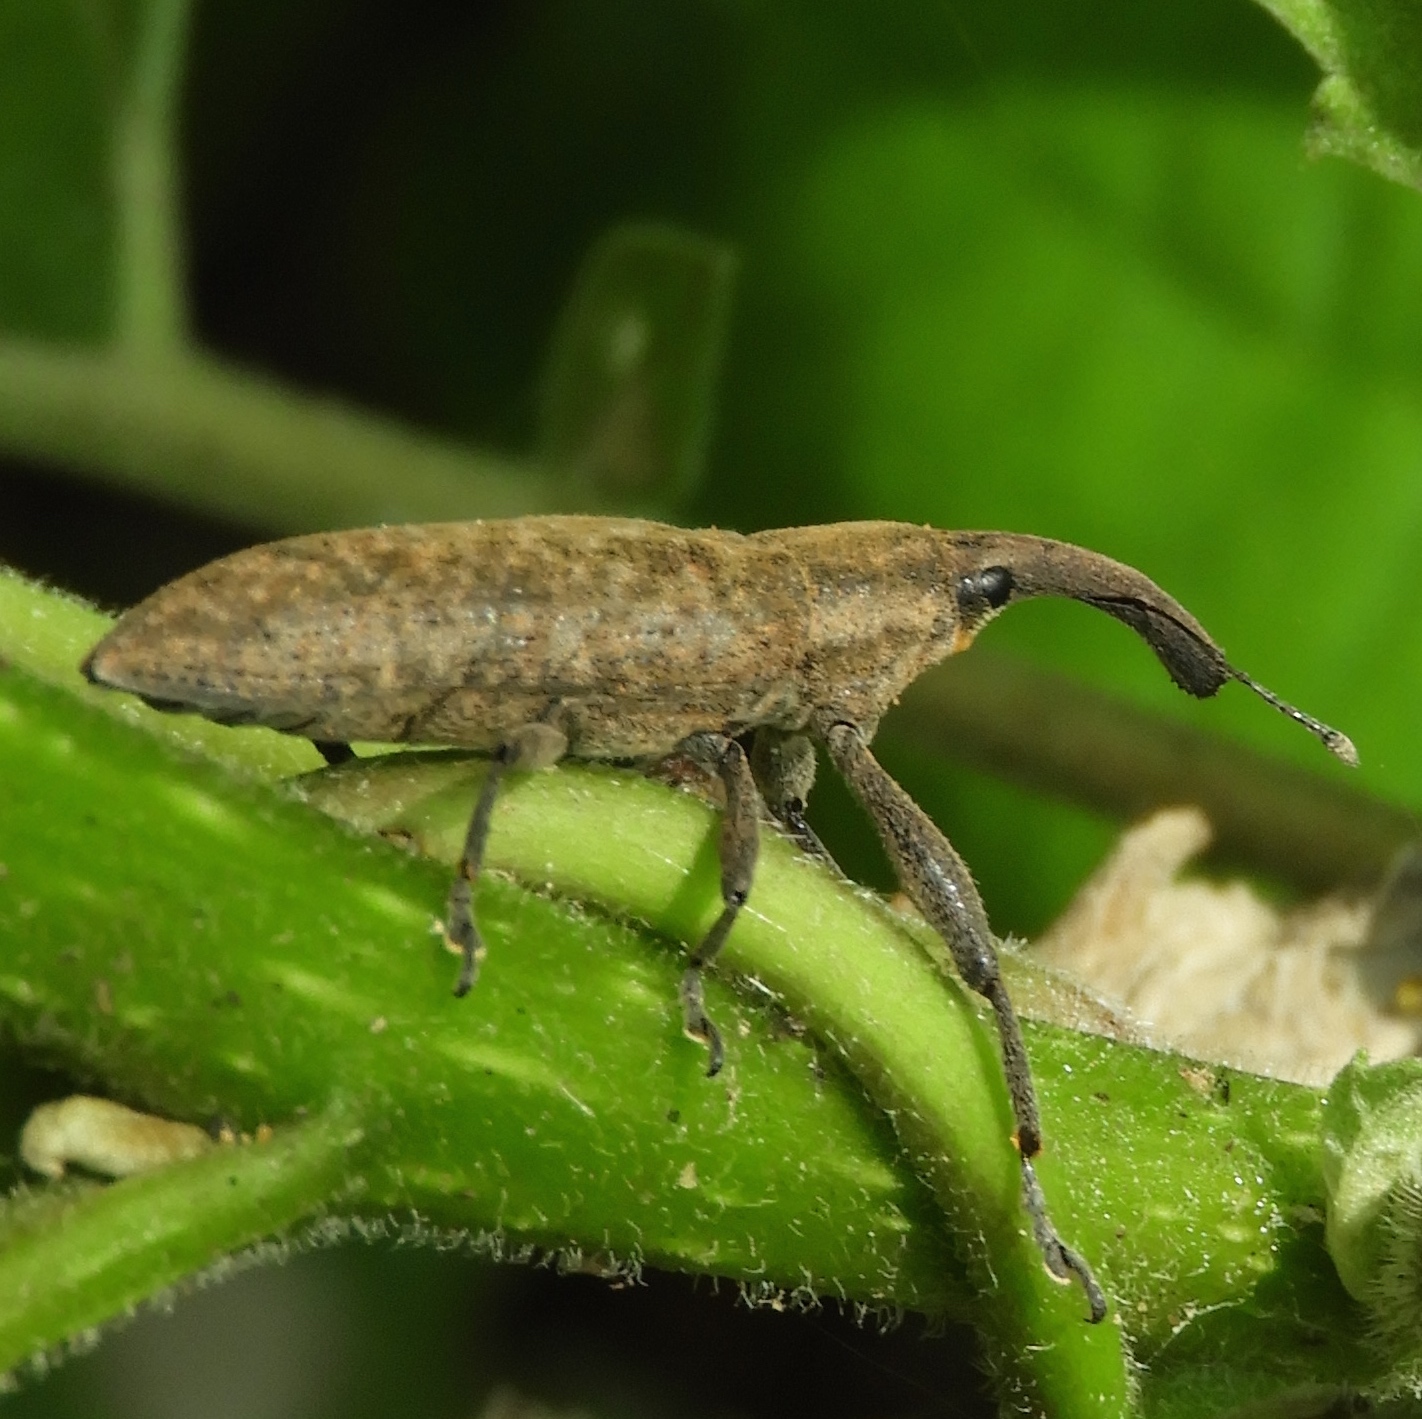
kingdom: Animalia
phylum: Arthropoda
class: Insecta
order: Coleoptera
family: Curculionidae
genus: Lixus
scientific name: Lixus
